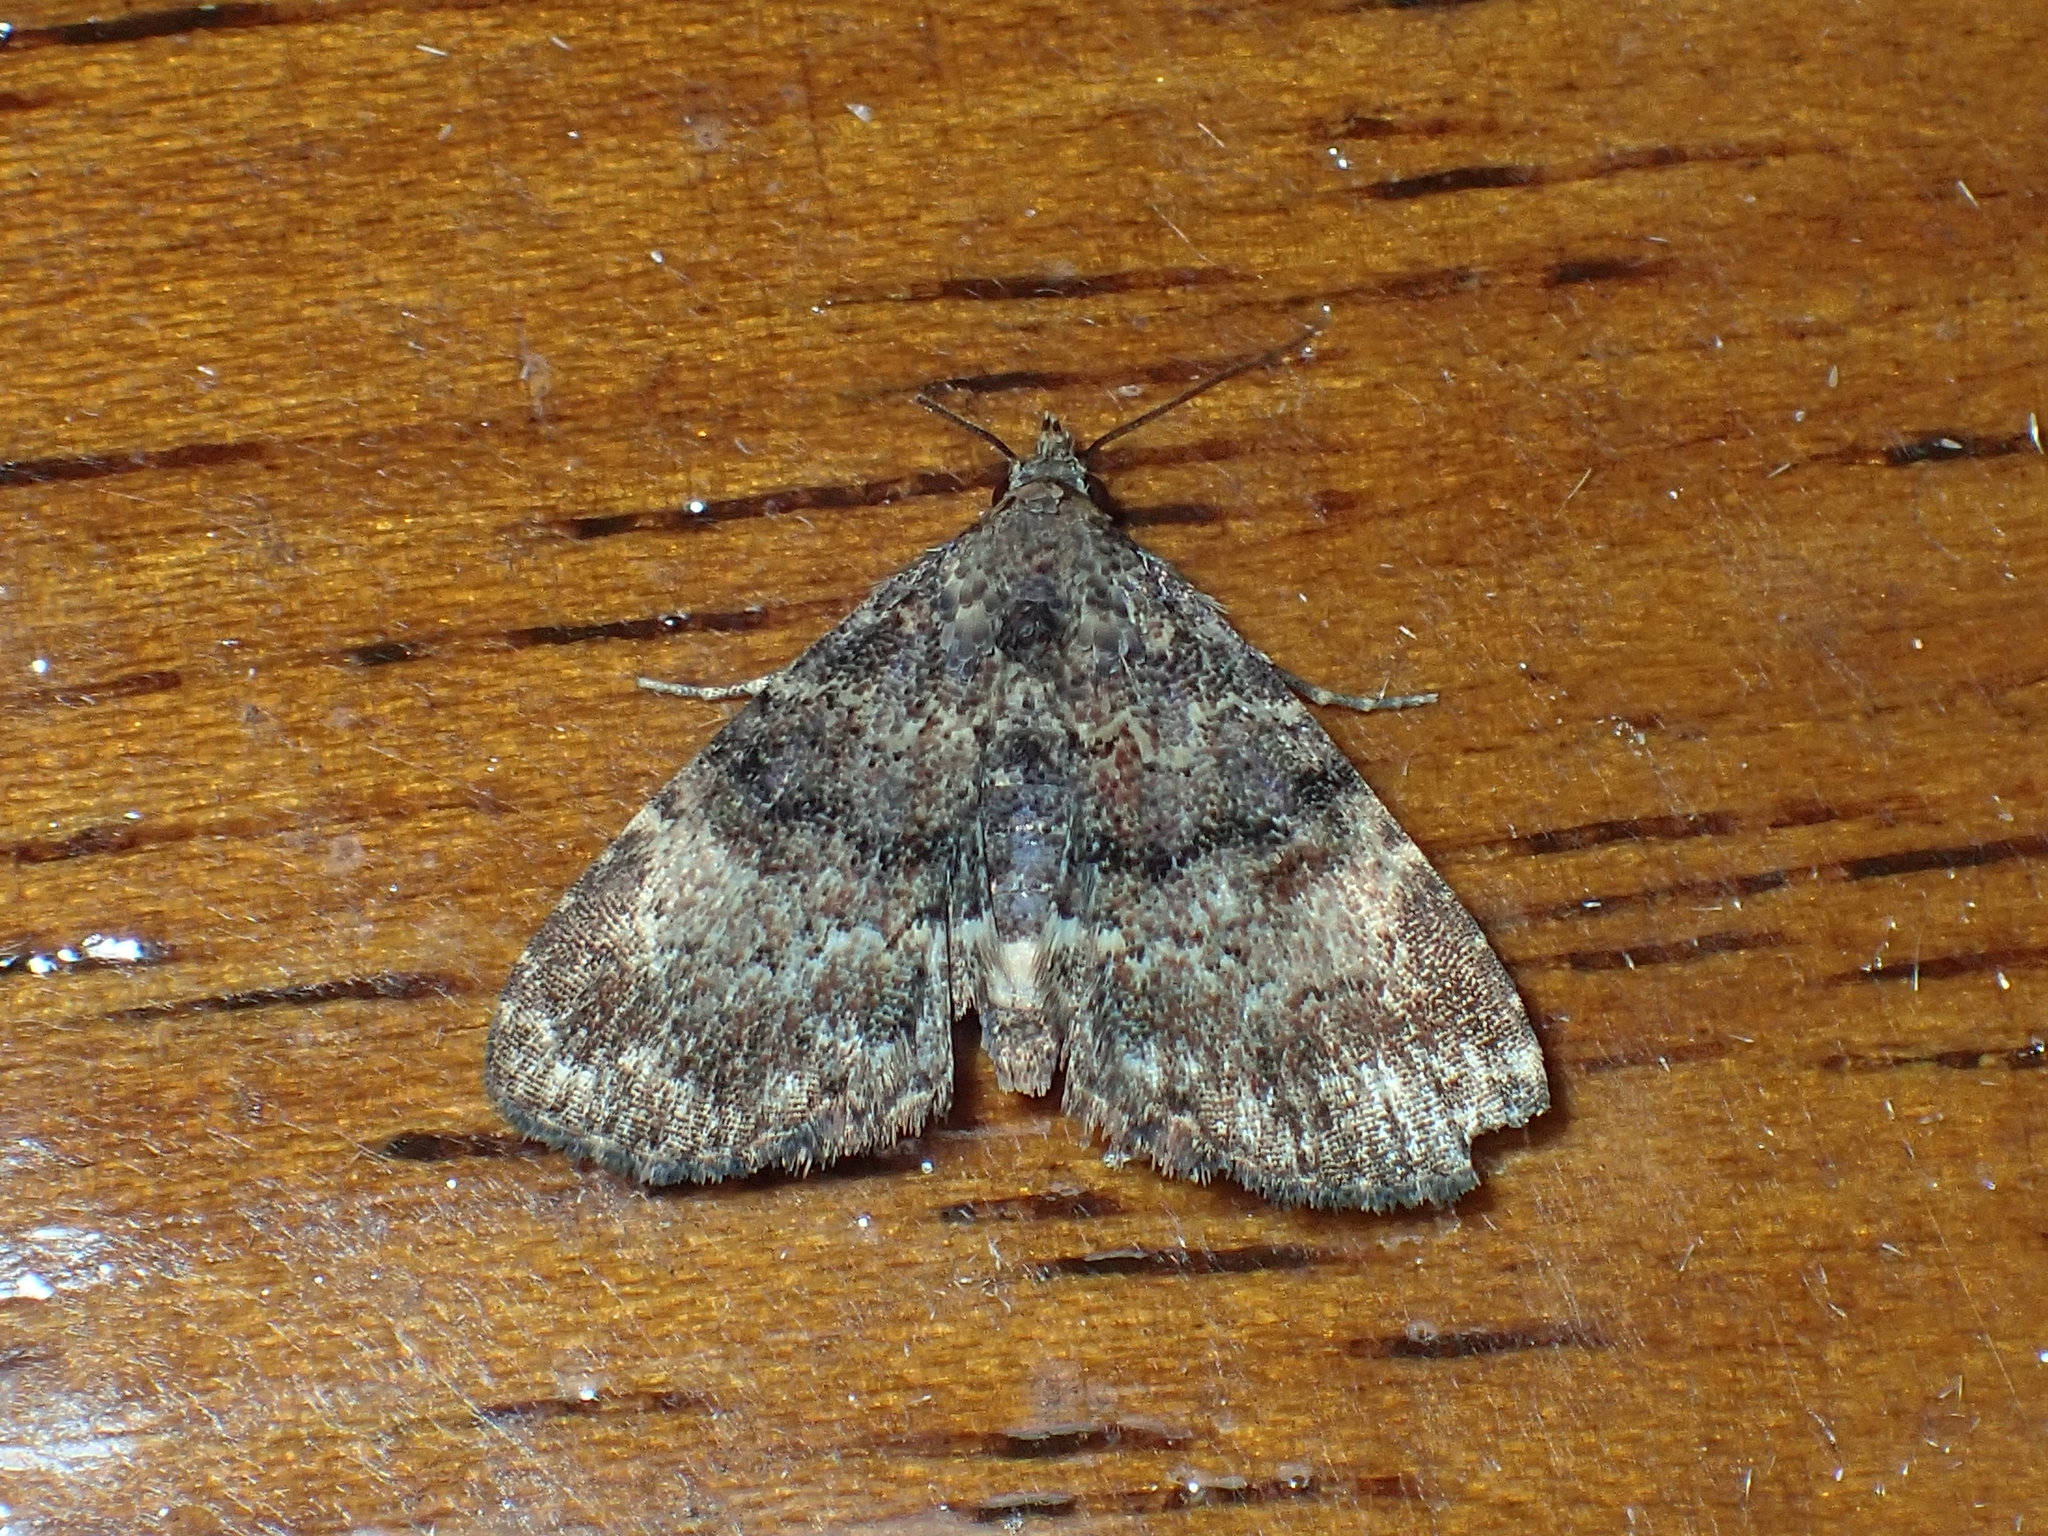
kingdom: Animalia
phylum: Arthropoda
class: Insecta
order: Lepidoptera
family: Erebidae
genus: Metalectra
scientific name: Metalectra richardsi
